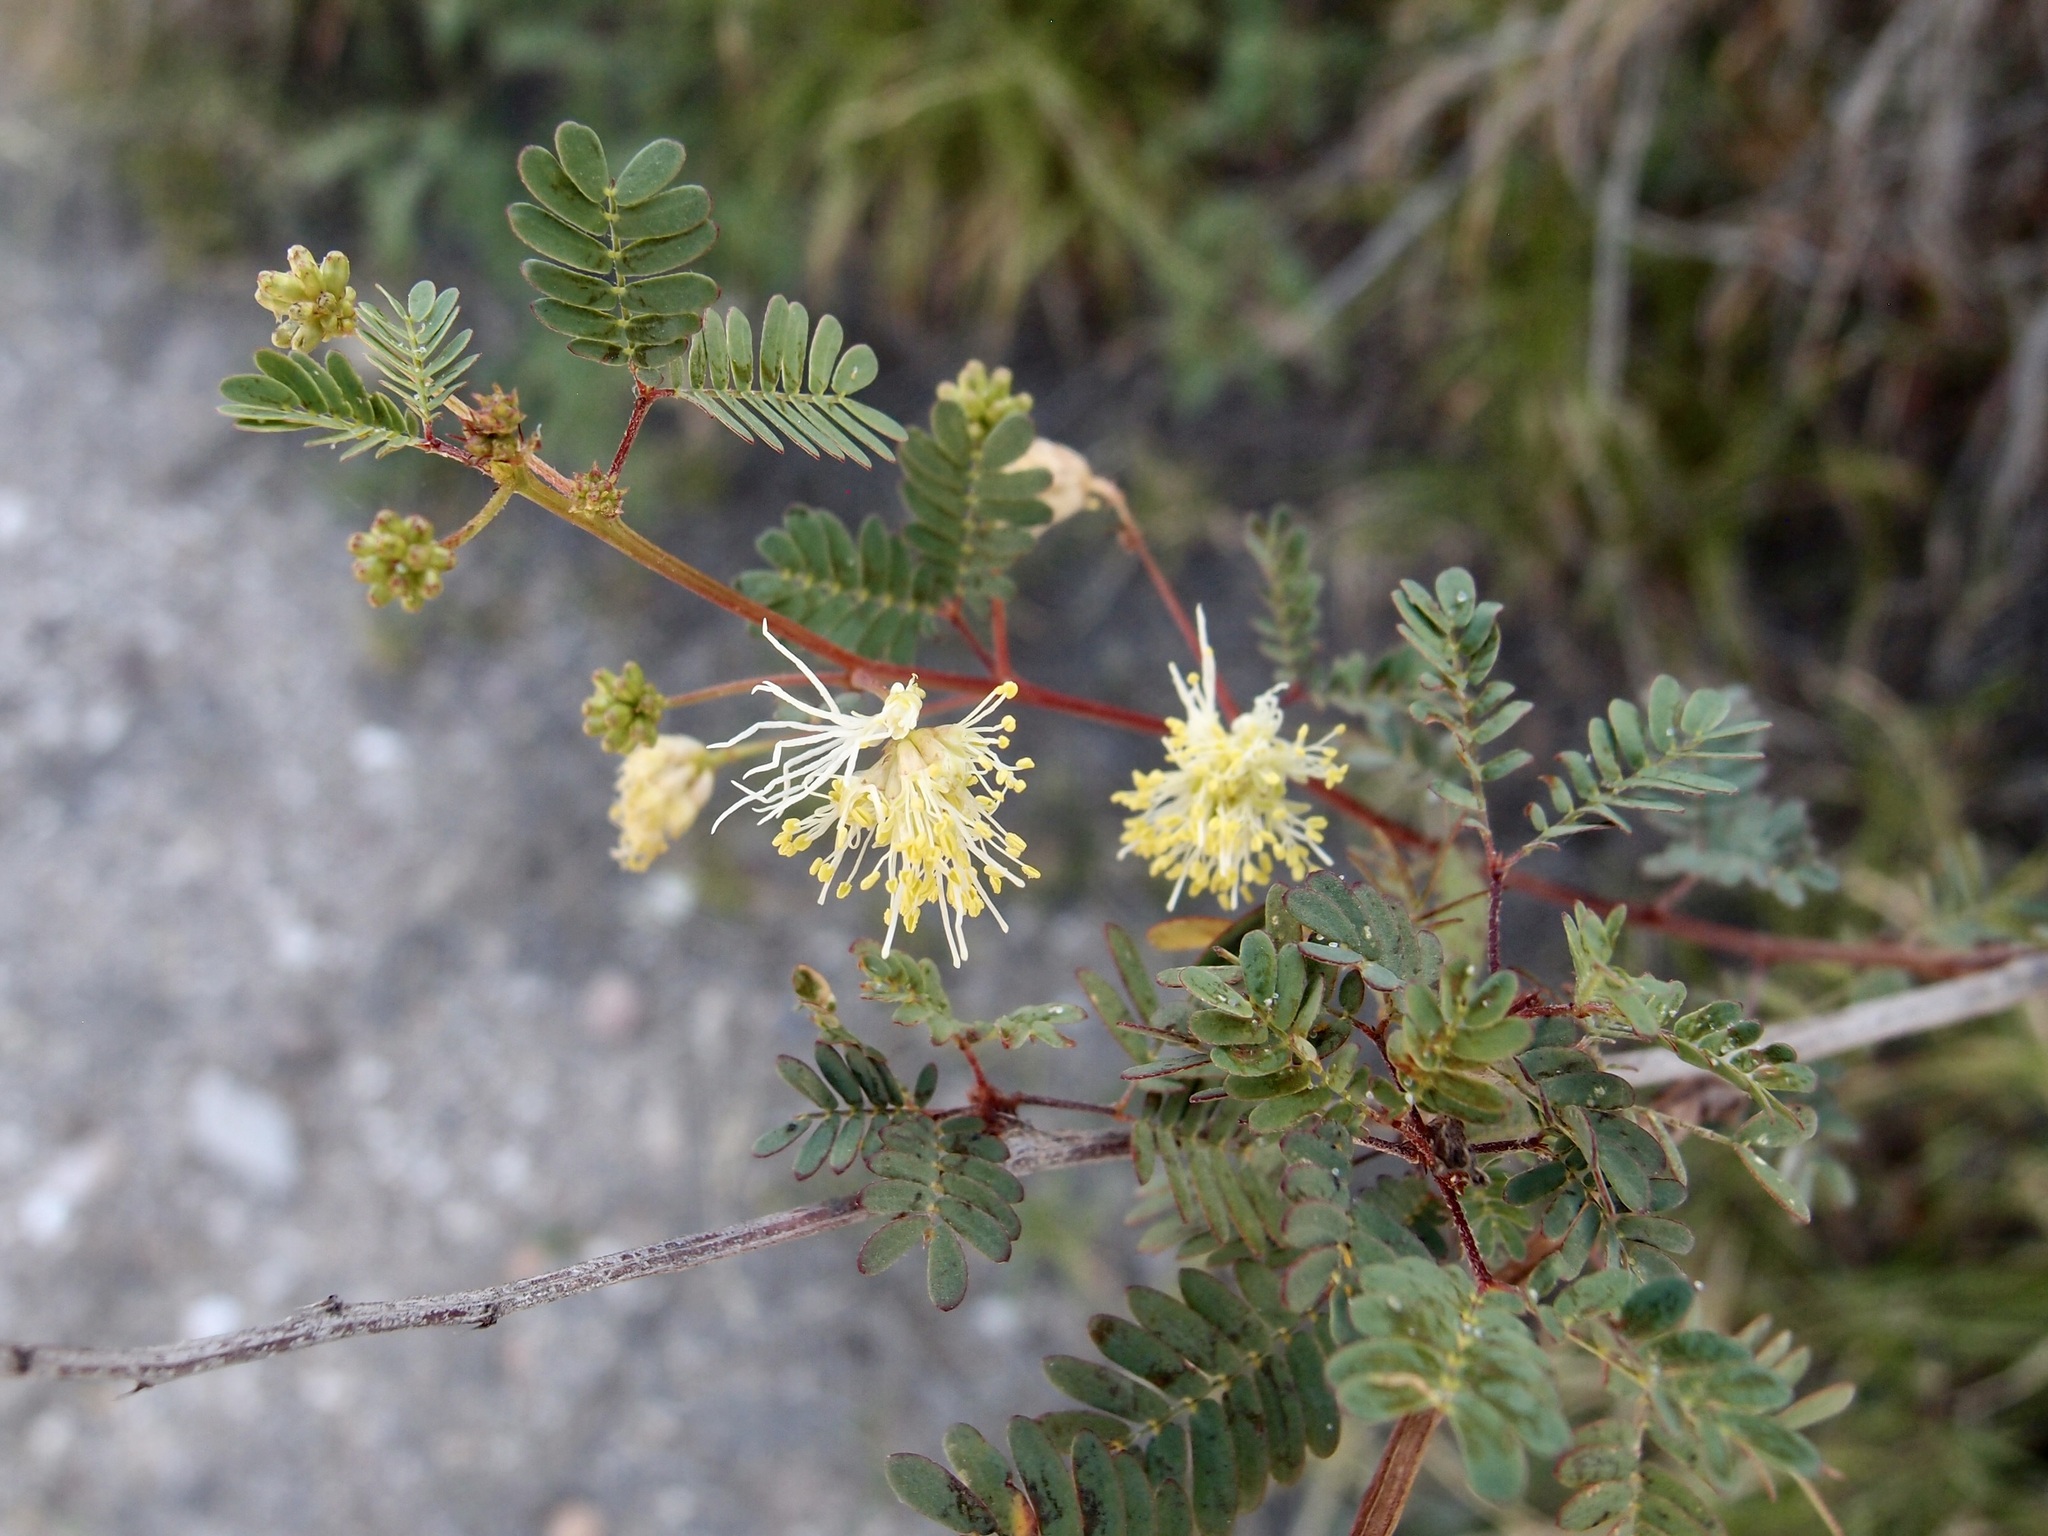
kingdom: Plantae
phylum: Tracheophyta
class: Magnoliopsida
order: Fabales
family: Fabaceae
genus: Desmanthus
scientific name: Desmanthus covillei
